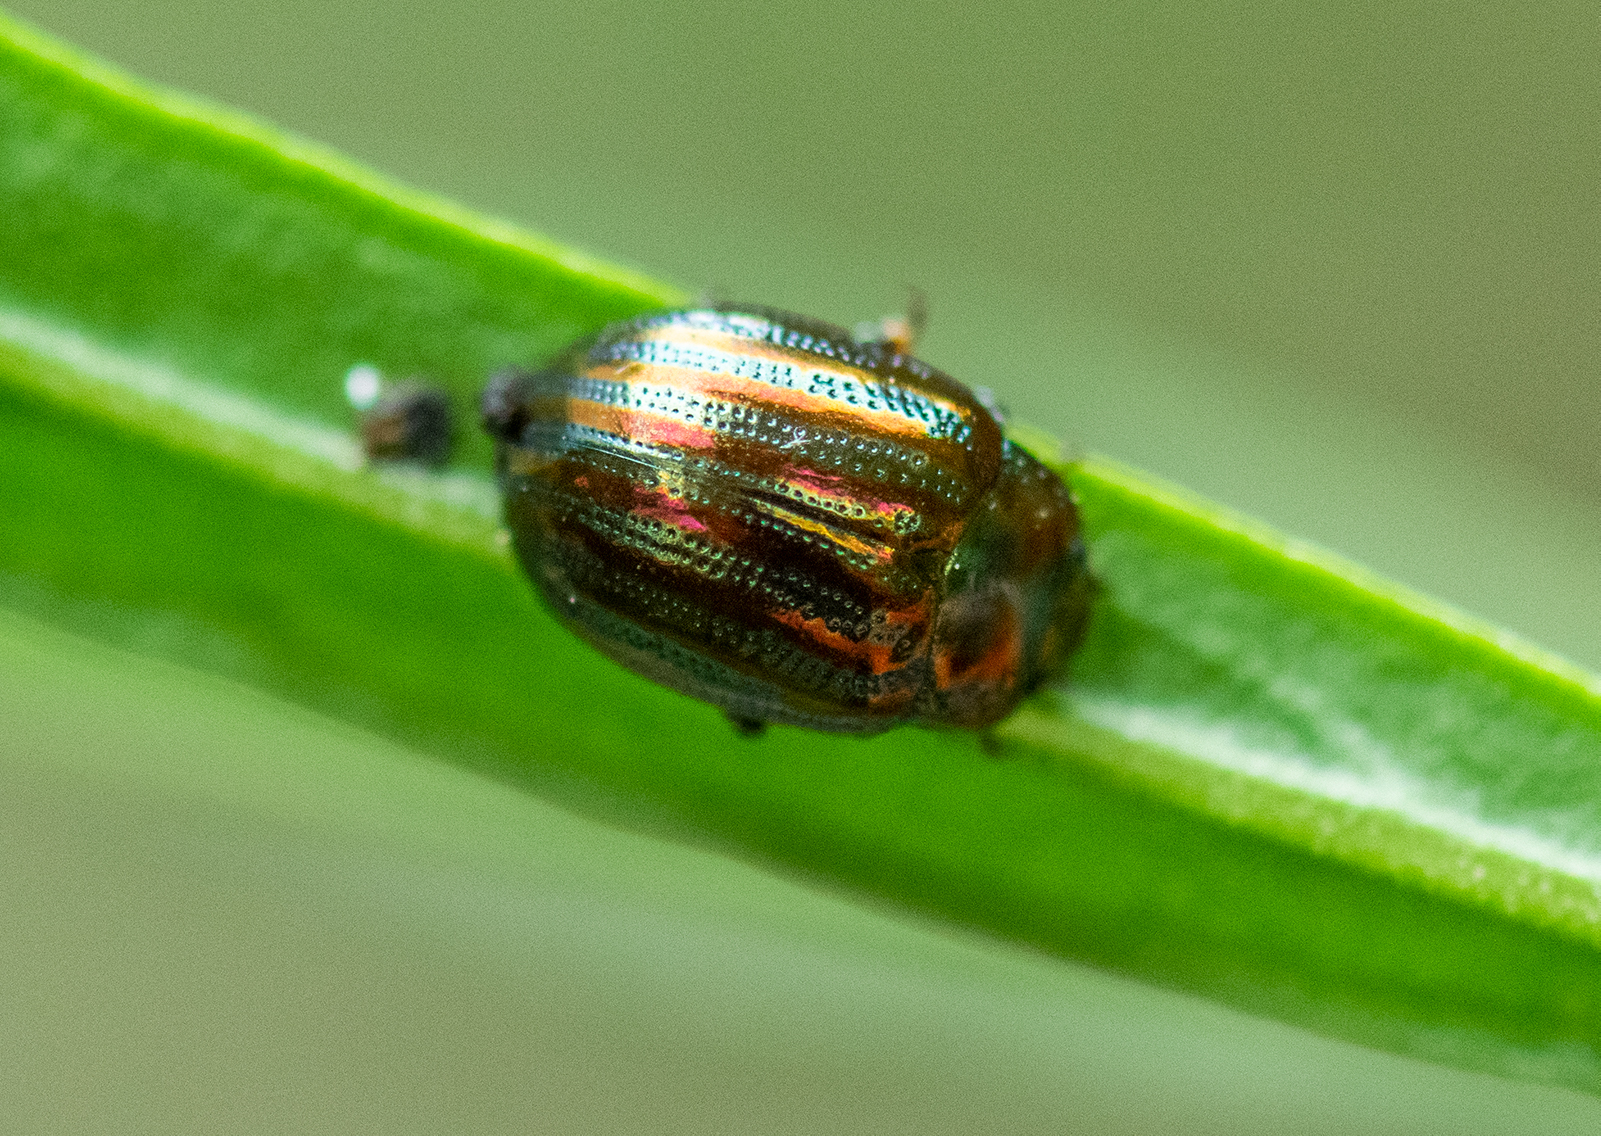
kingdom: Animalia
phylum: Arthropoda
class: Insecta
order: Coleoptera
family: Chrysomelidae
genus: Chrysolina
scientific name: Chrysolina americana
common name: Rosemary beetle
